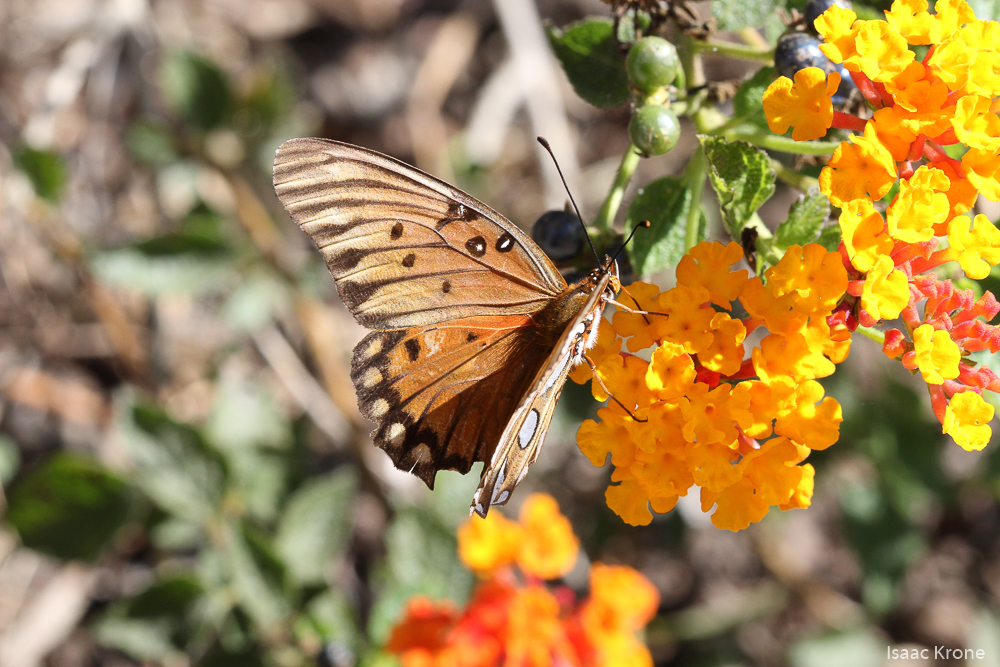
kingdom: Animalia
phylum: Arthropoda
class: Insecta
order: Lepidoptera
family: Nymphalidae
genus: Dione
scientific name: Dione vanillae
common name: Gulf fritillary
